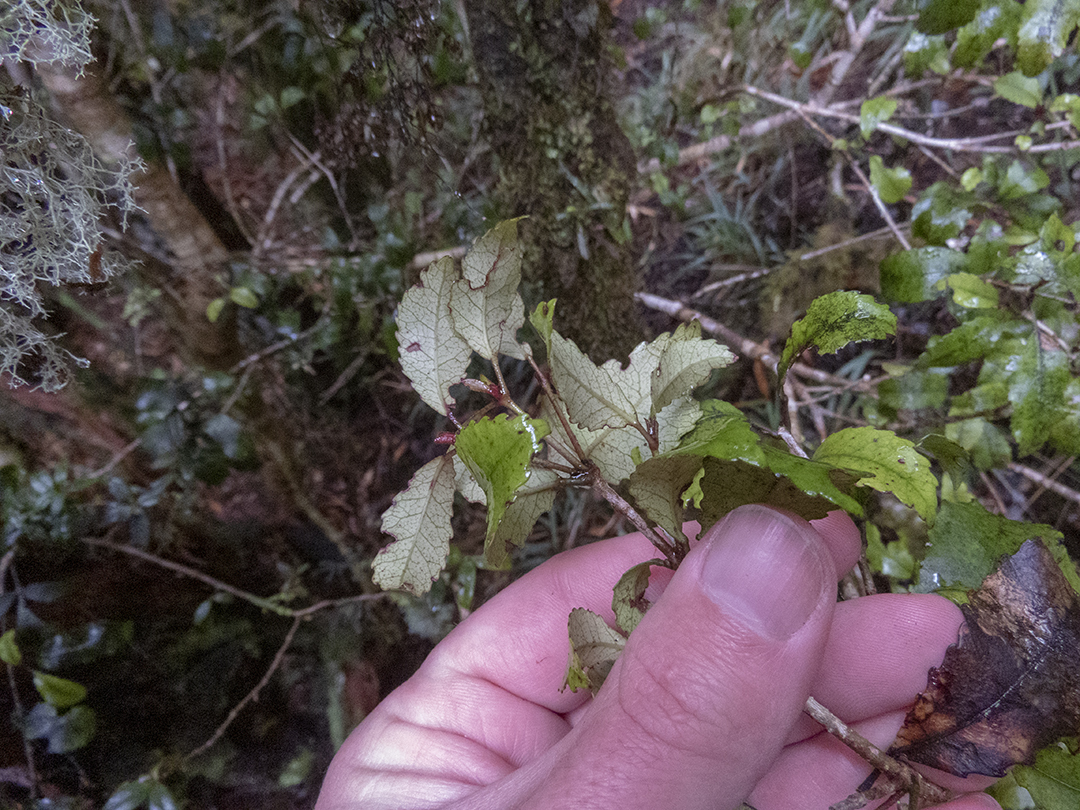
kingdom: Plantae
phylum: Tracheophyta
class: Magnoliopsida
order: Oxalidales
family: Cunoniaceae
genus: Pterophylla
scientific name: Pterophylla racemosa
